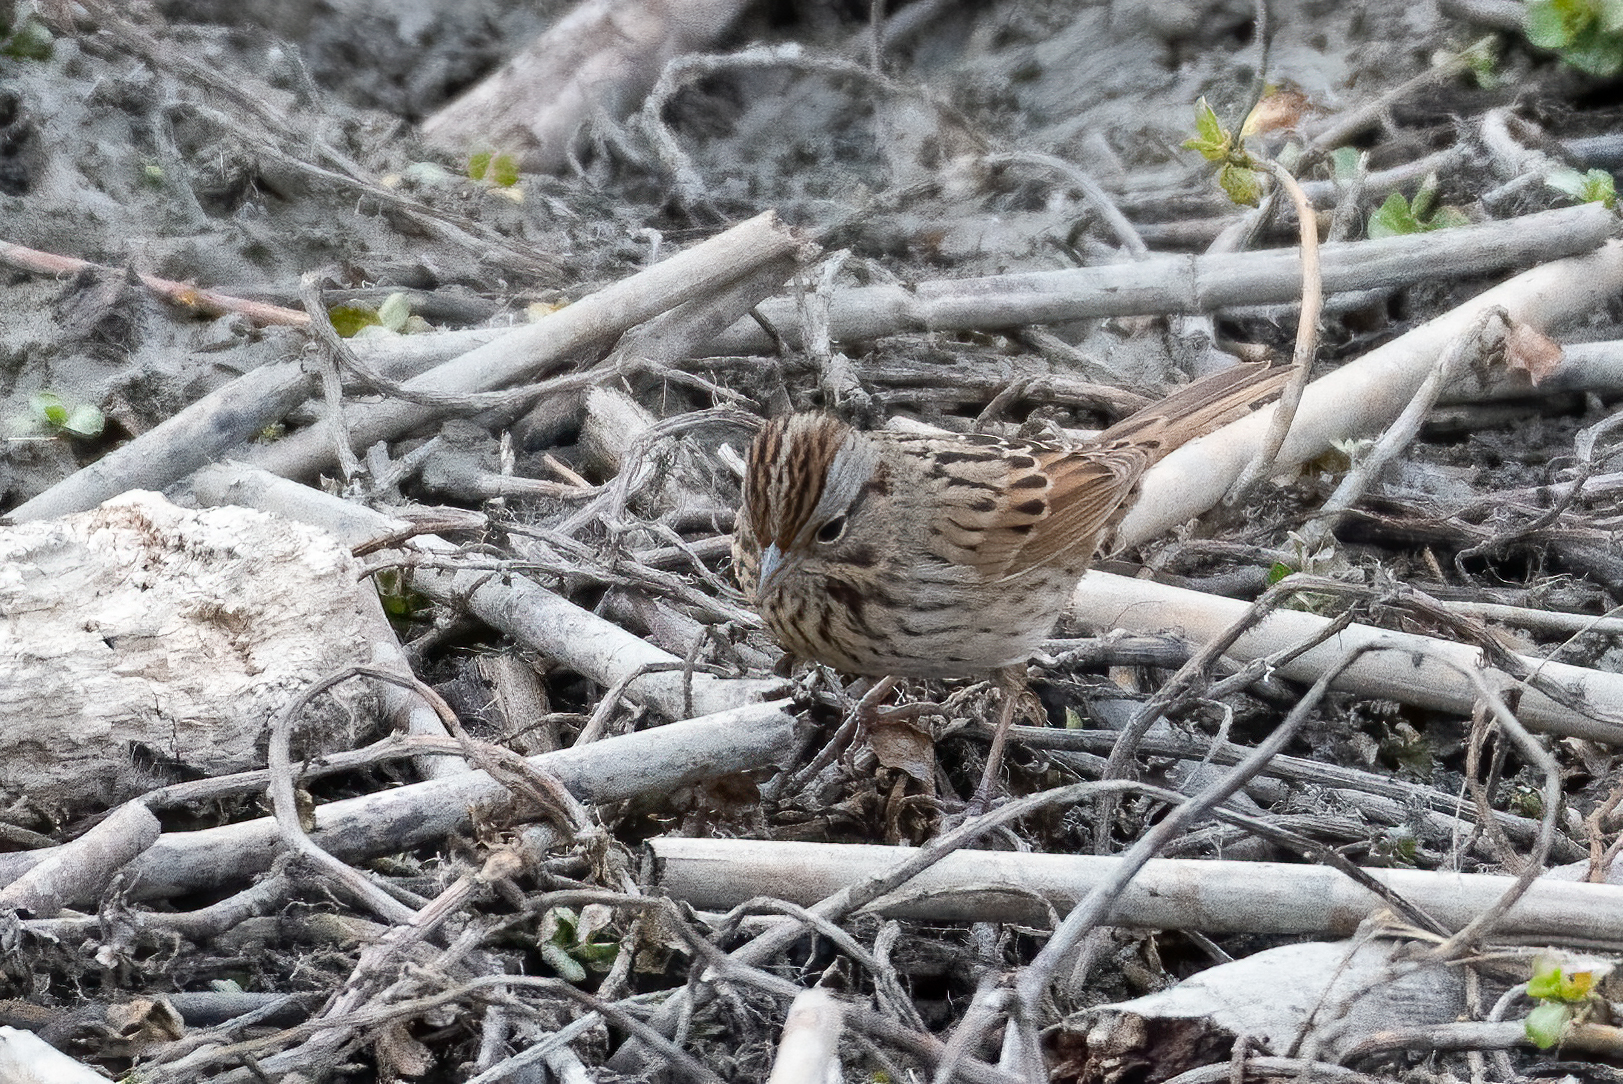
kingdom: Animalia
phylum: Chordata
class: Aves
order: Passeriformes
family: Passerellidae
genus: Melospiza
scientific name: Melospiza lincolnii
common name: Lincoln's sparrow
